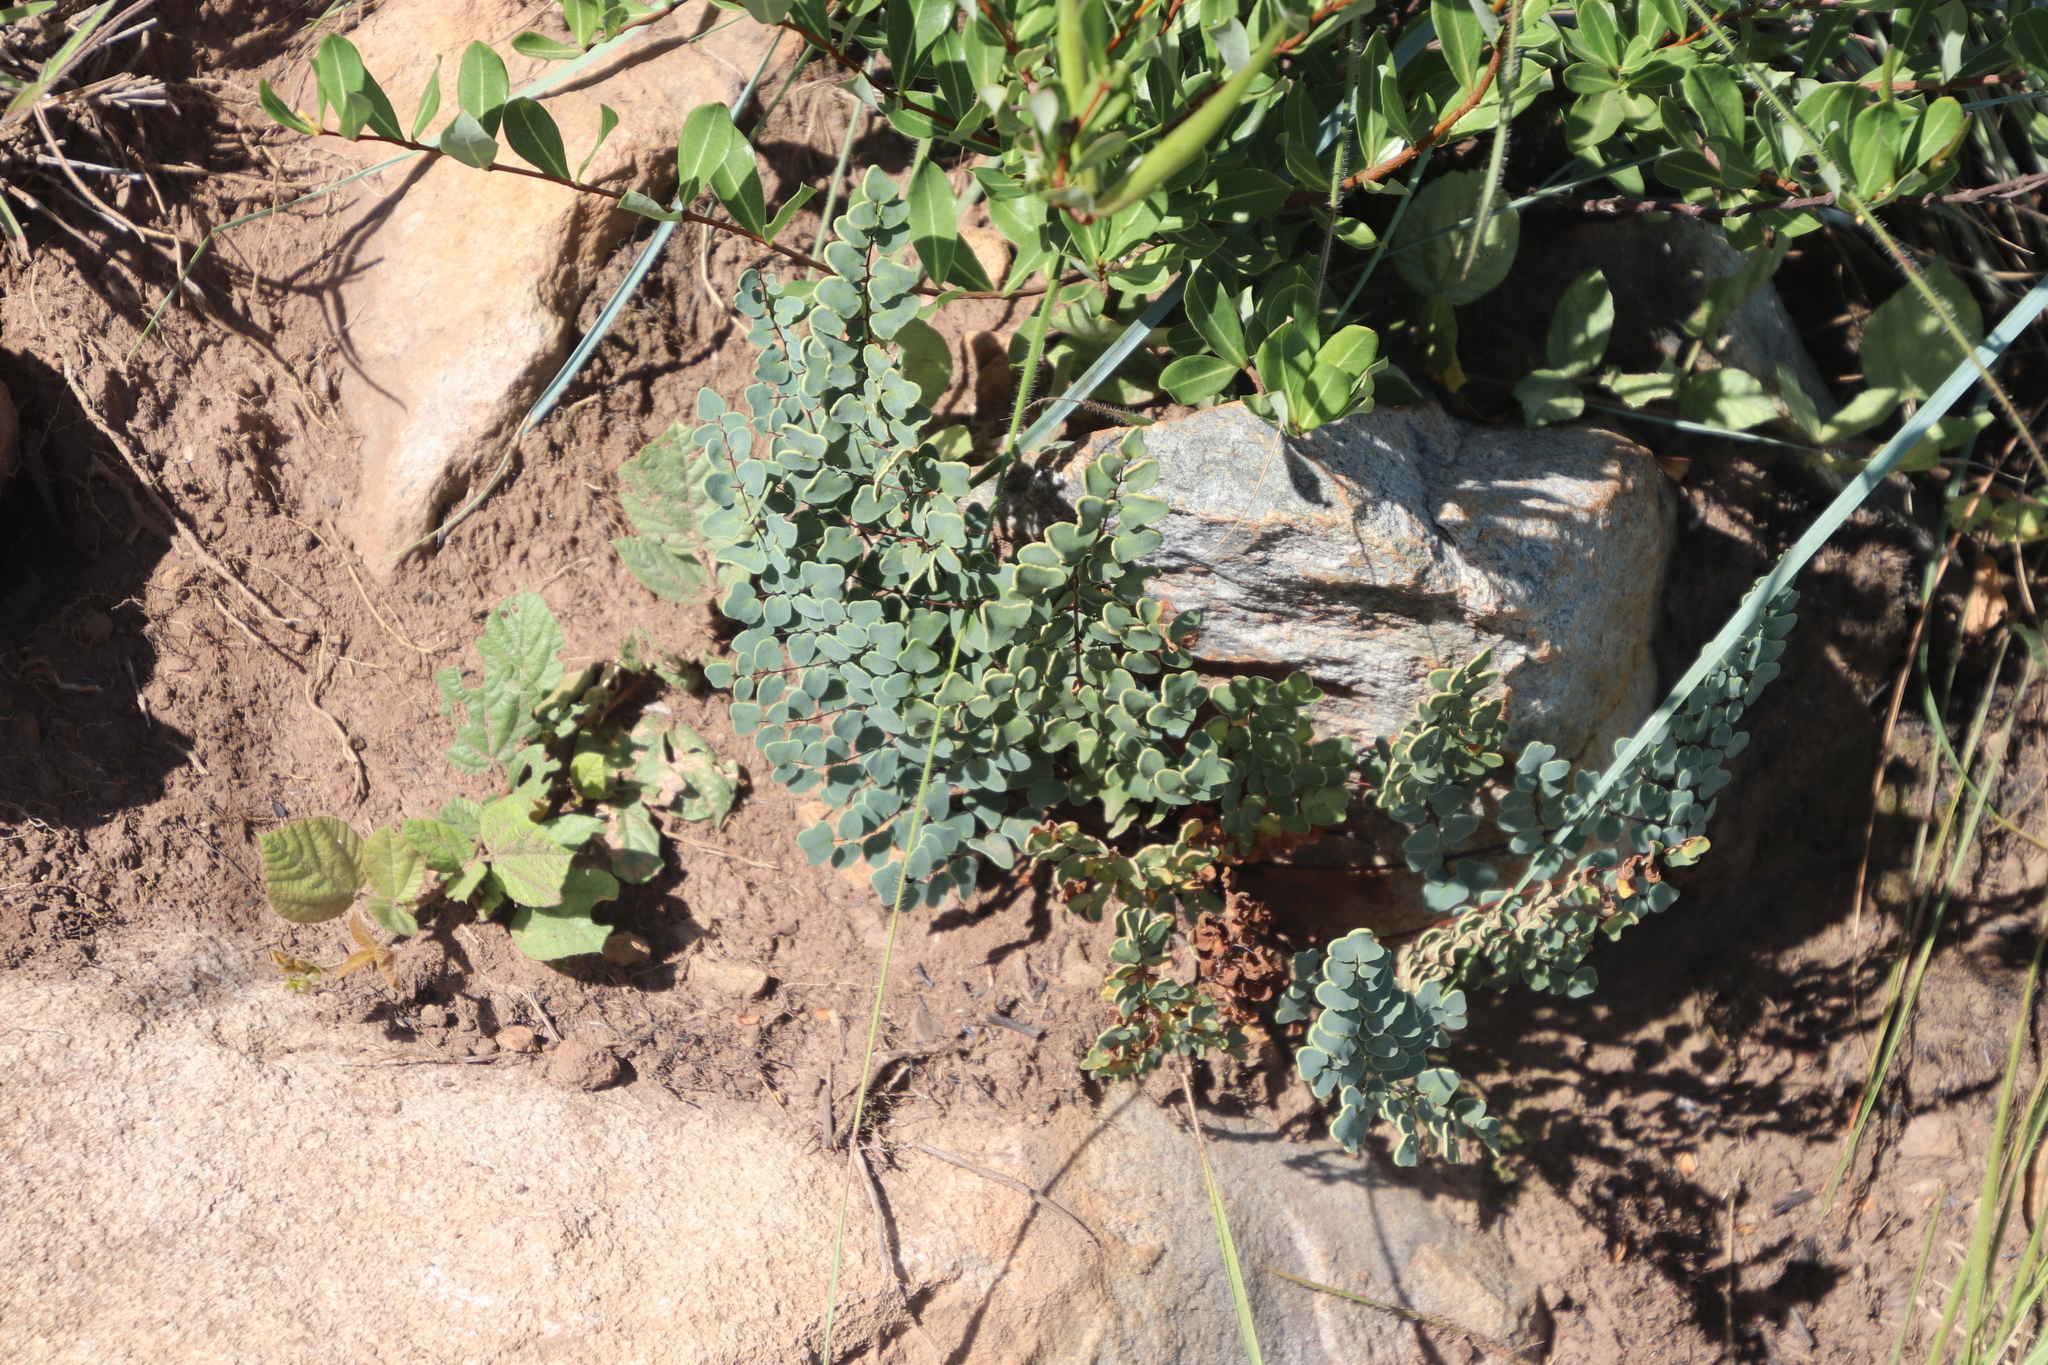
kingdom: Plantae
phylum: Tracheophyta
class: Polypodiopsida
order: Polypodiales
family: Pteridaceae
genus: Pellaea
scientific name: Pellaea calomelanos
